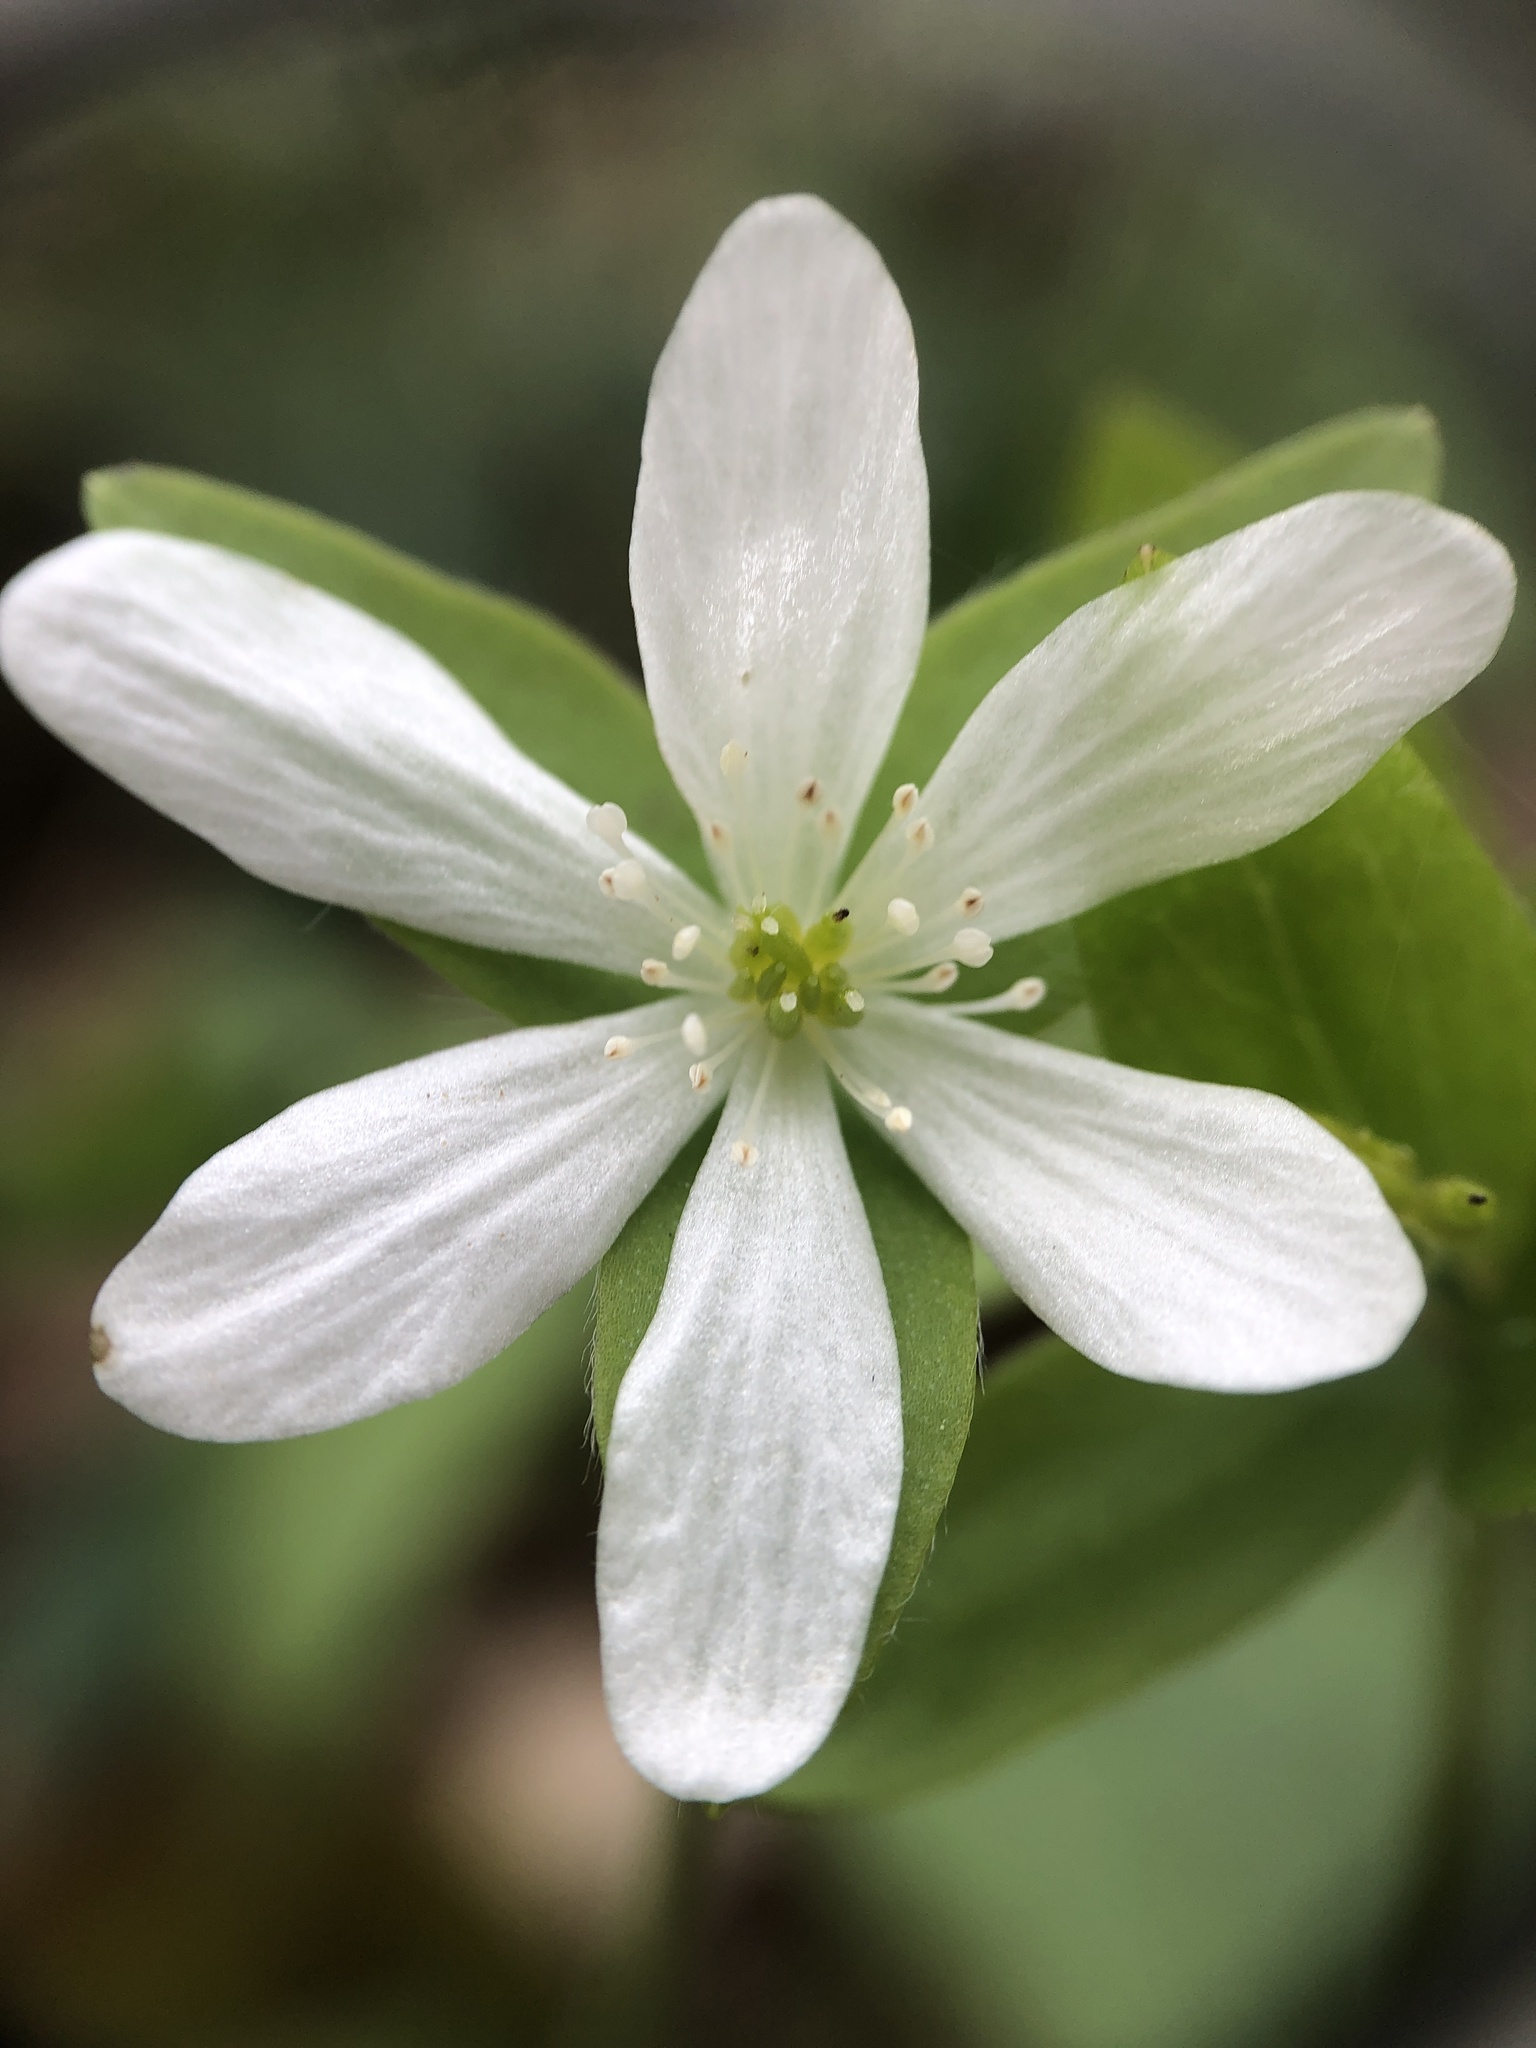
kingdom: Plantae
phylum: Tracheophyta
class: Magnoliopsida
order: Ranunculales
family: Ranunculaceae
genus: Hepatica
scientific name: Hepatica acutiloba
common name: Sharp-lobed hepatica
